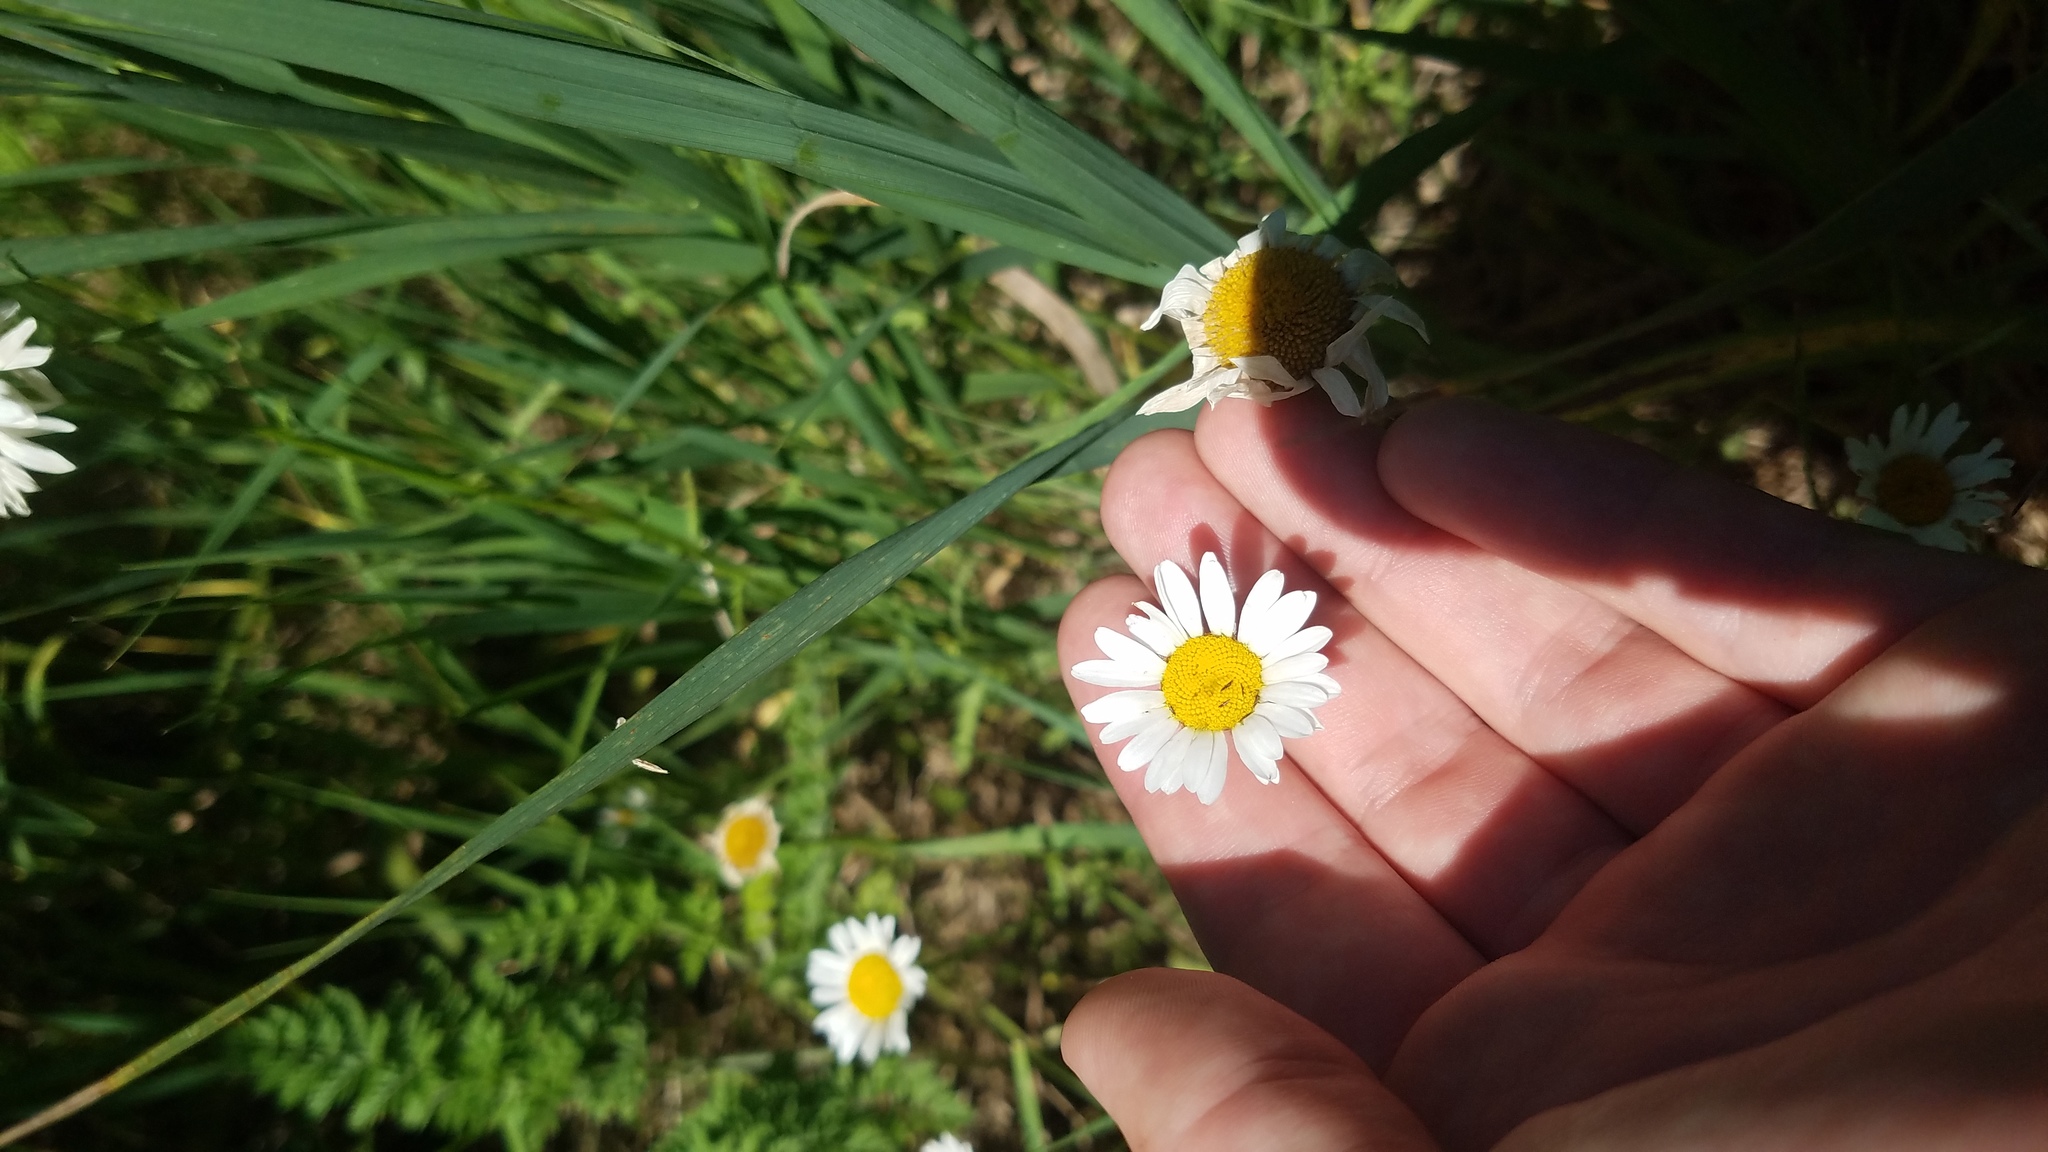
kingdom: Plantae
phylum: Tracheophyta
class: Magnoliopsida
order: Asterales
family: Asteraceae
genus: Leucanthemum
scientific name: Leucanthemum vulgare
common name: Oxeye daisy
